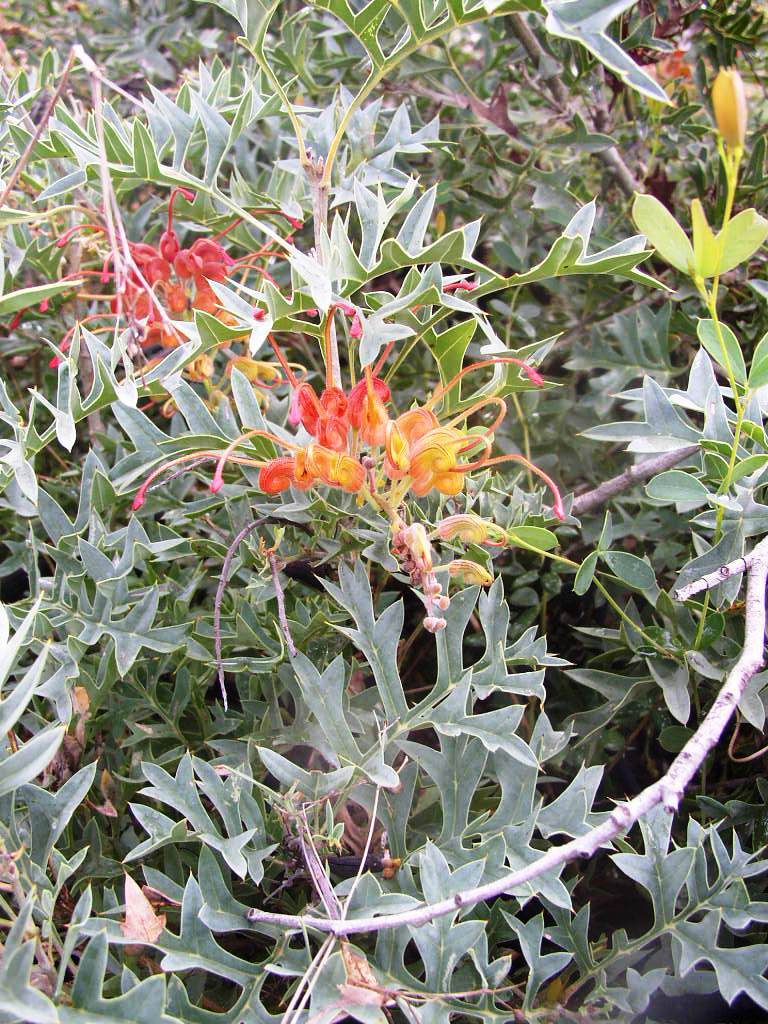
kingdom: Plantae
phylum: Tracheophyta
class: Magnoliopsida
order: Proteales
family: Proteaceae
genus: Grevillea
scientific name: Grevillea bipinnatifida
